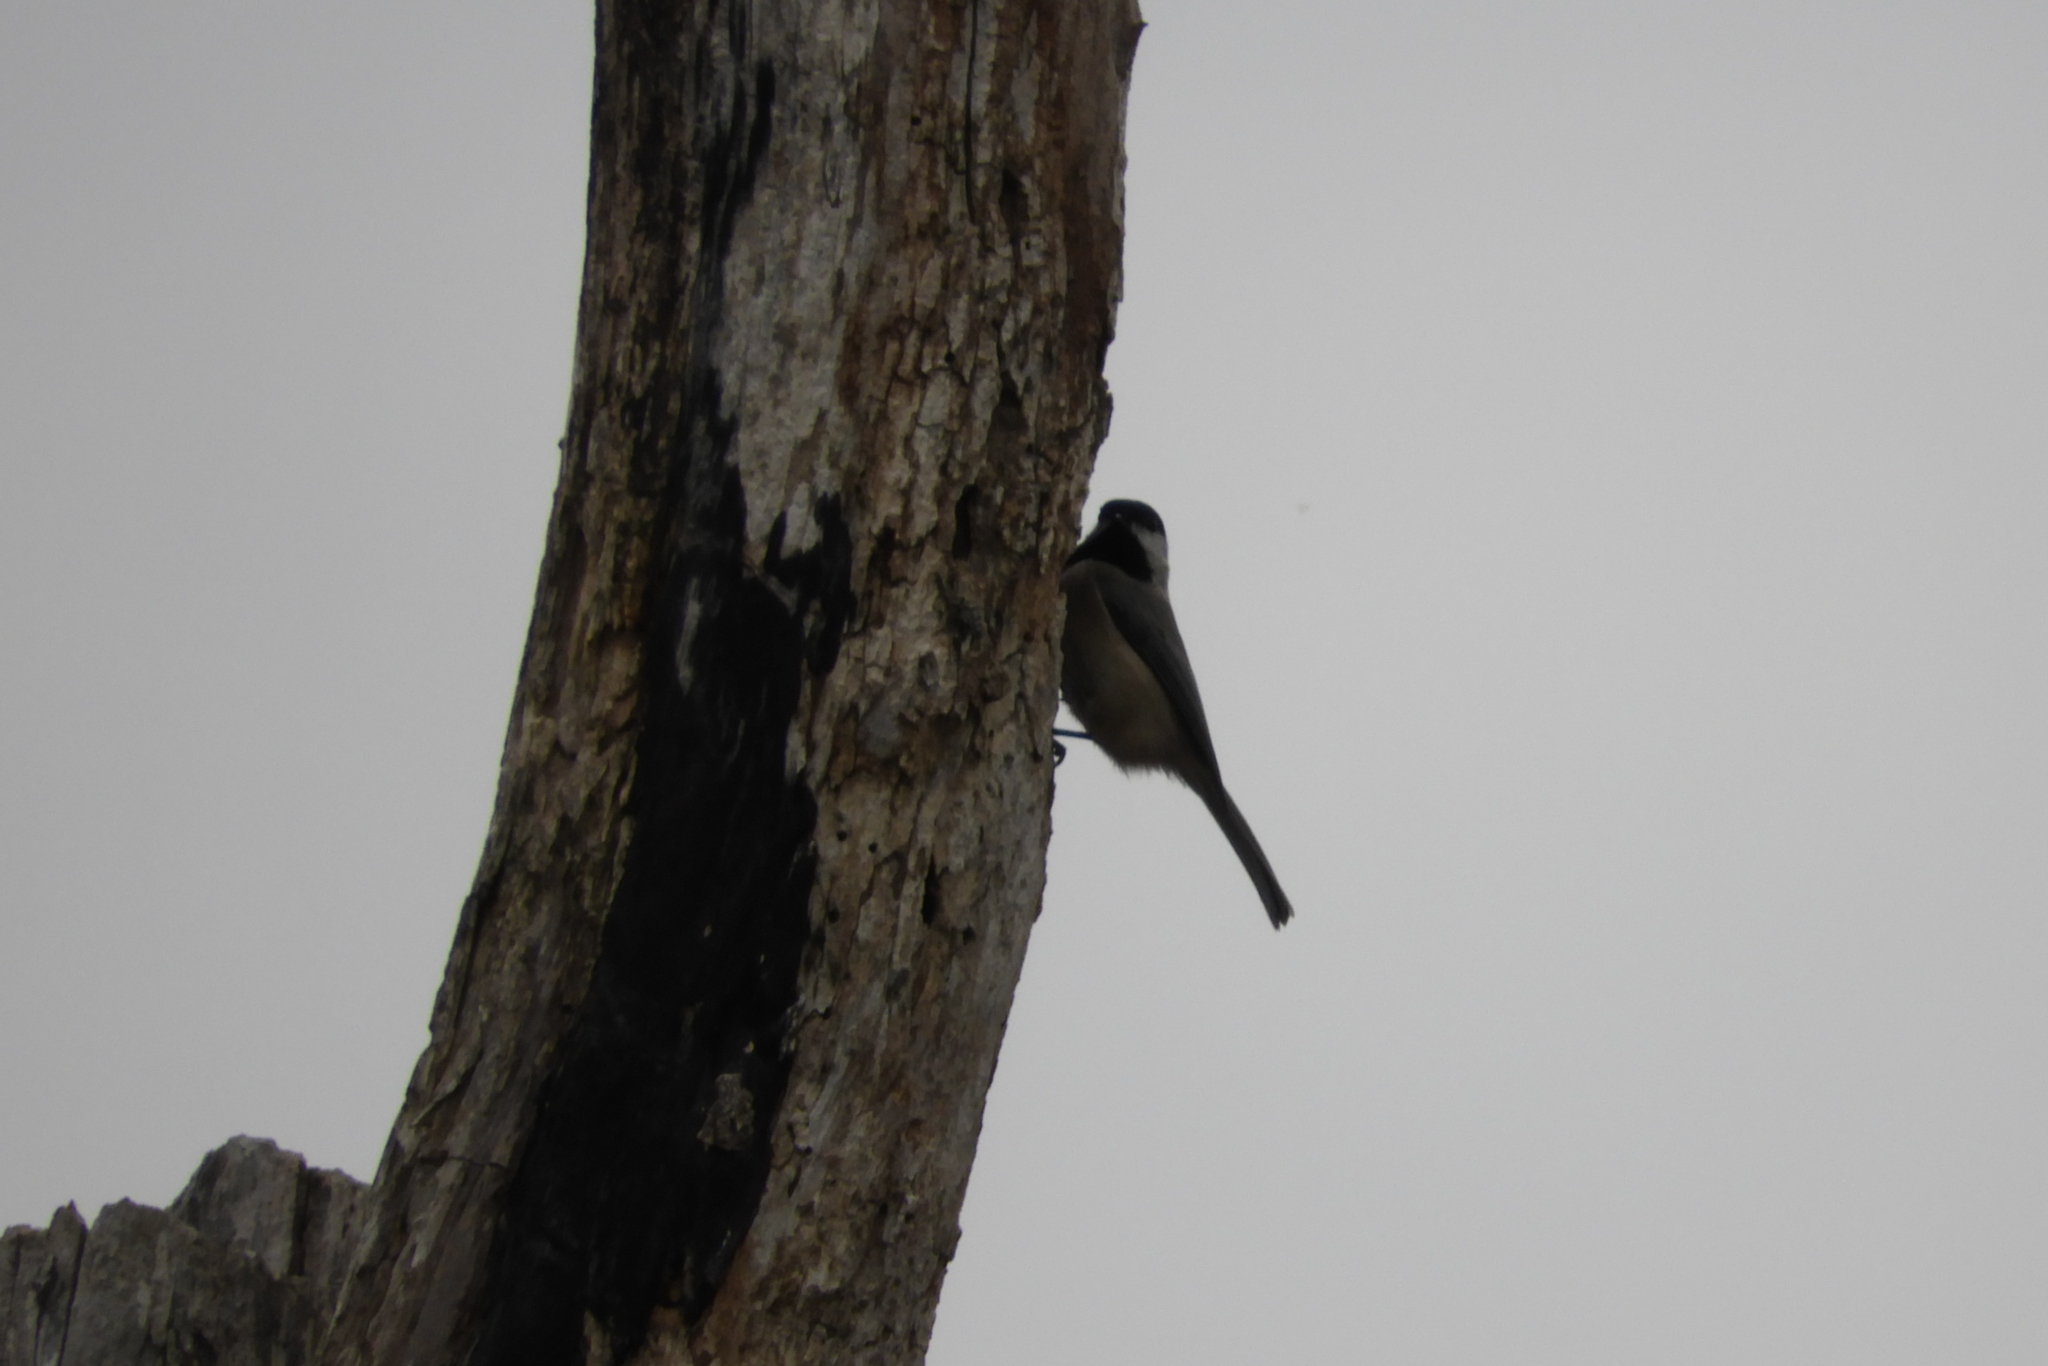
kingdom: Animalia
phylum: Chordata
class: Aves
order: Passeriformes
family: Paridae
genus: Poecile
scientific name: Poecile carolinensis
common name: Carolina chickadee
